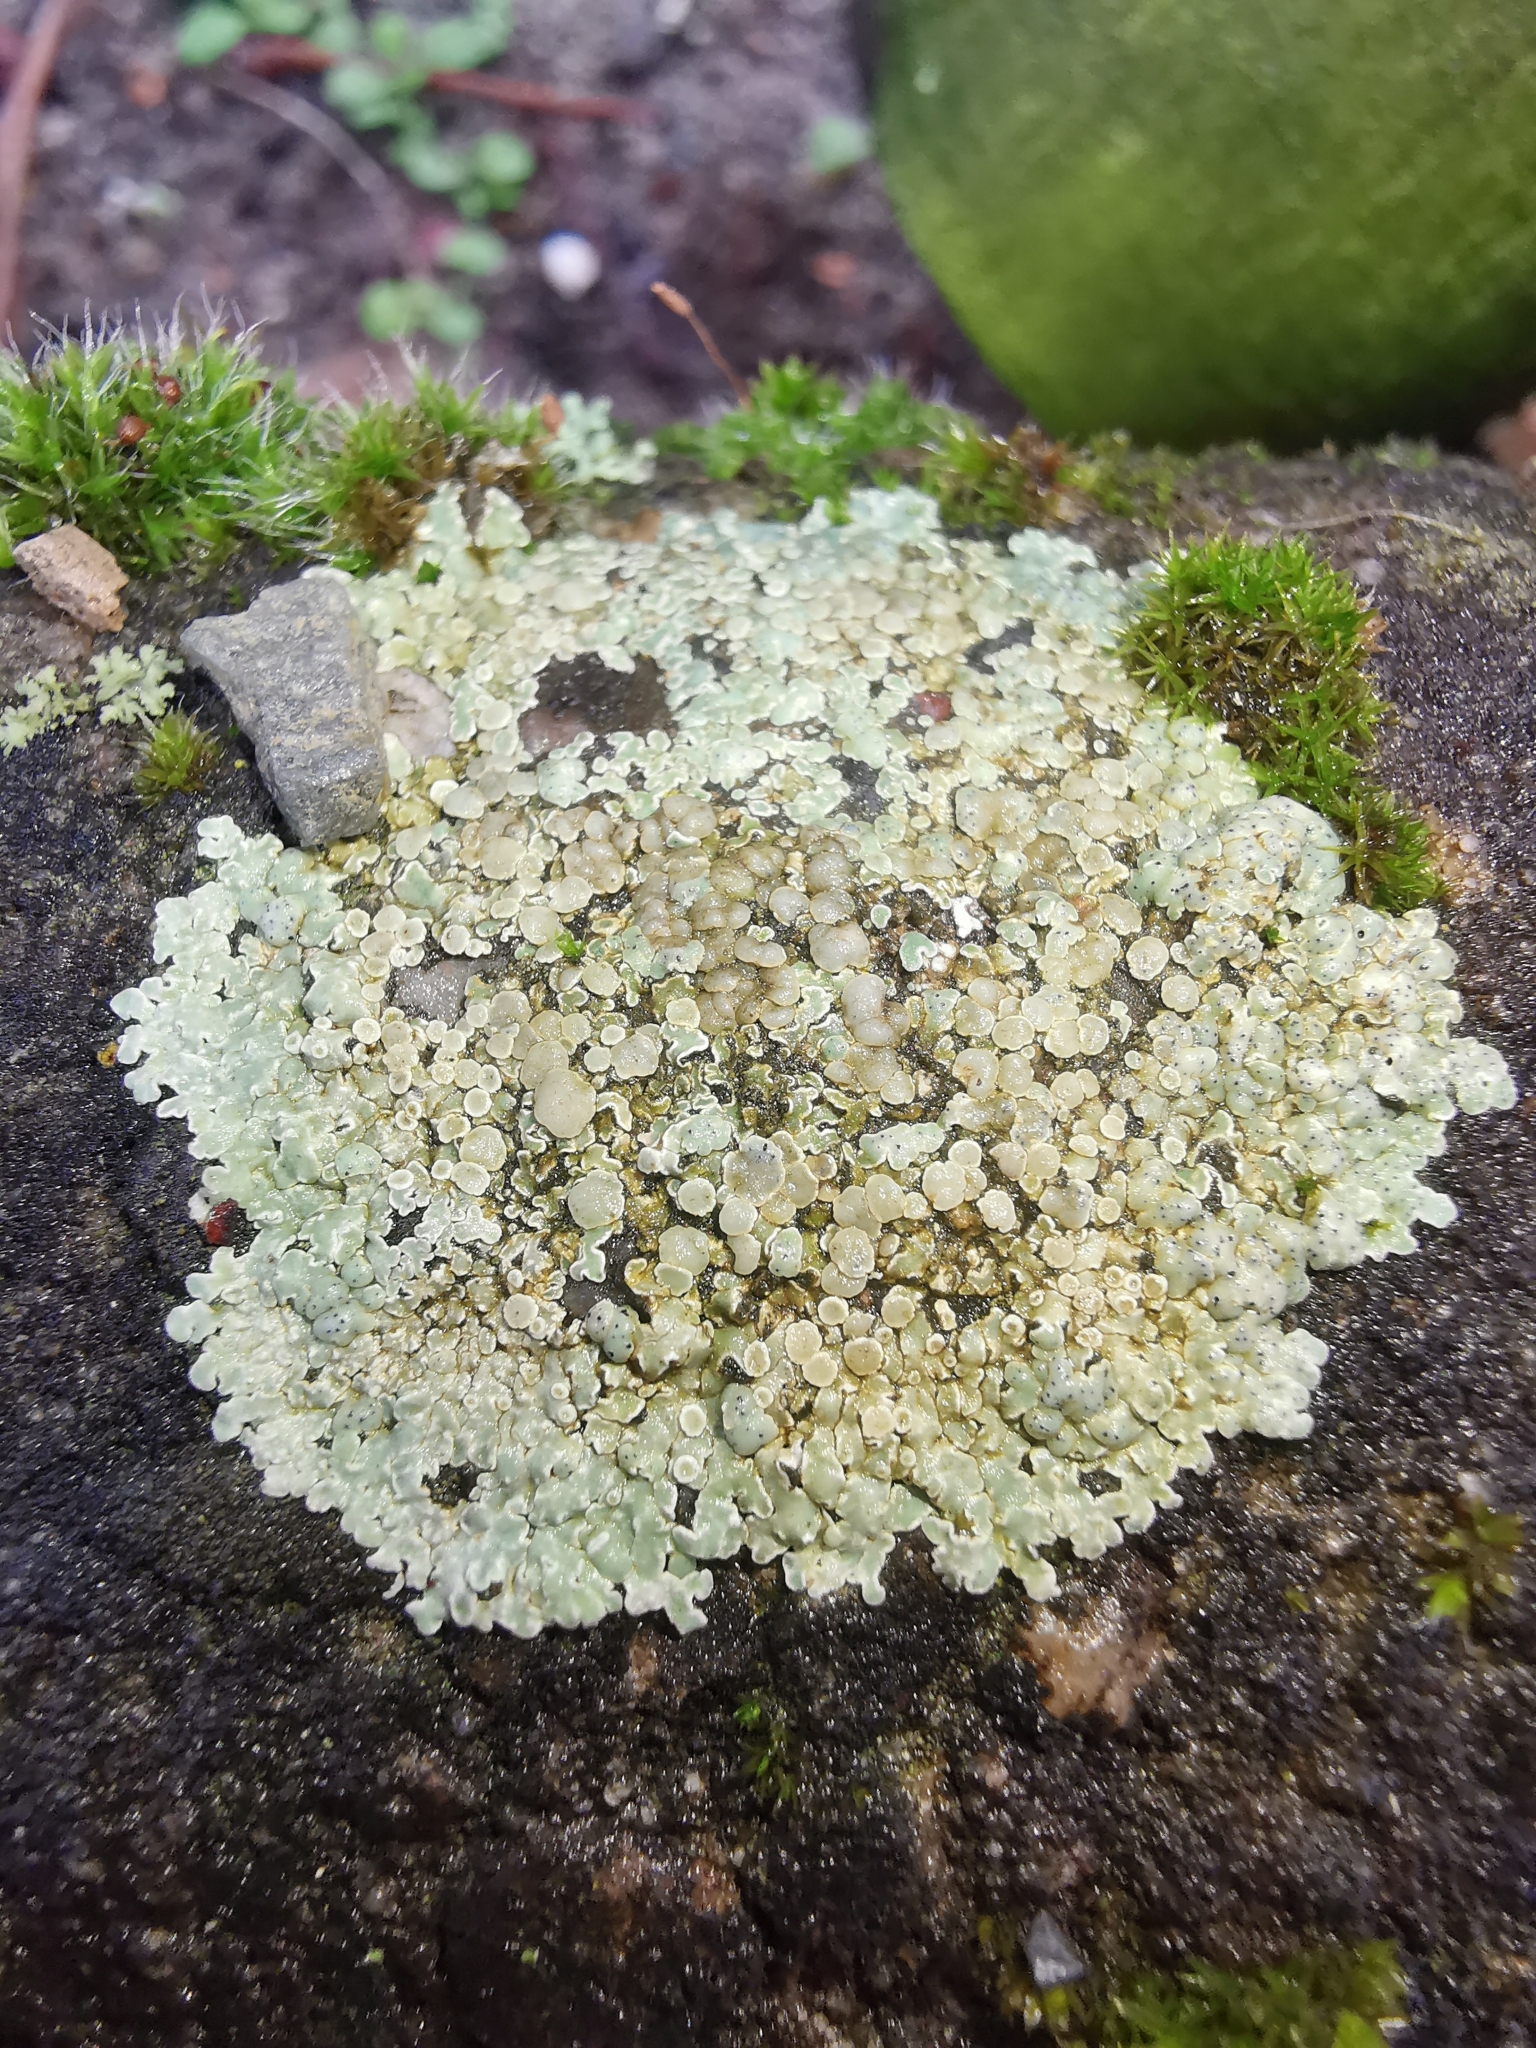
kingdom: Fungi
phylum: Ascomycota
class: Lecanoromycetes
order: Lecanorales
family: Lecanoraceae
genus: Protoparmeliopsis
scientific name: Protoparmeliopsis muralis
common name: Stonewall rim lichen
